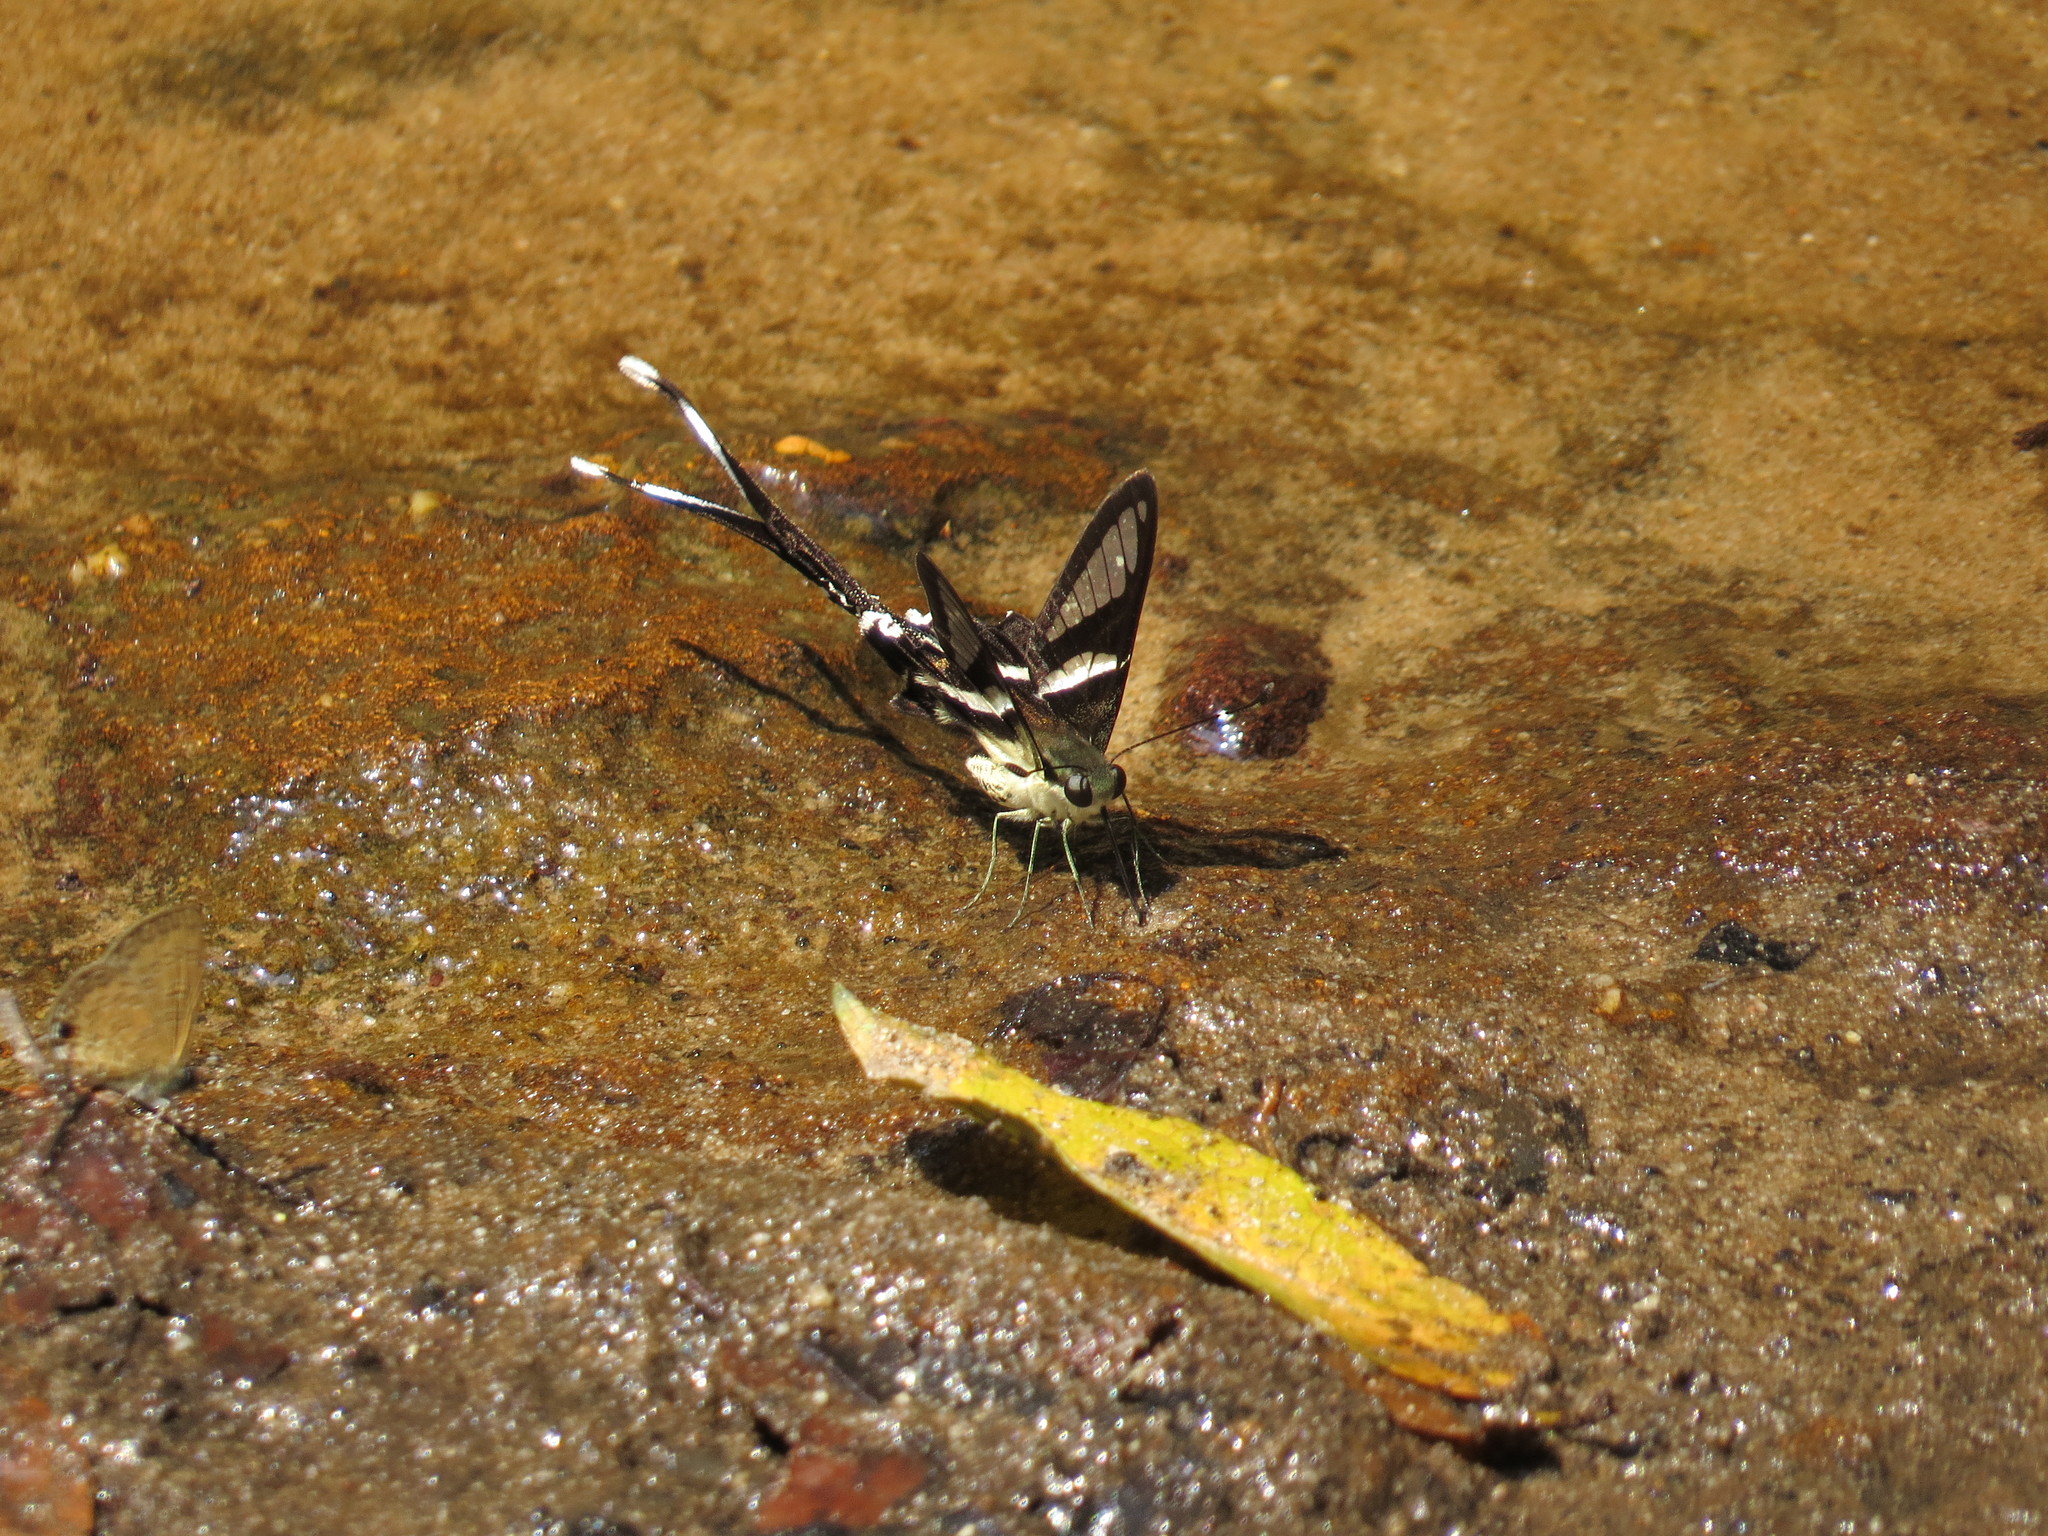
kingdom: Animalia
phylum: Arthropoda
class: Insecta
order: Lepidoptera
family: Papilionidae
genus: Lamproptera
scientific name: Lamproptera curius
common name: White dragontail
